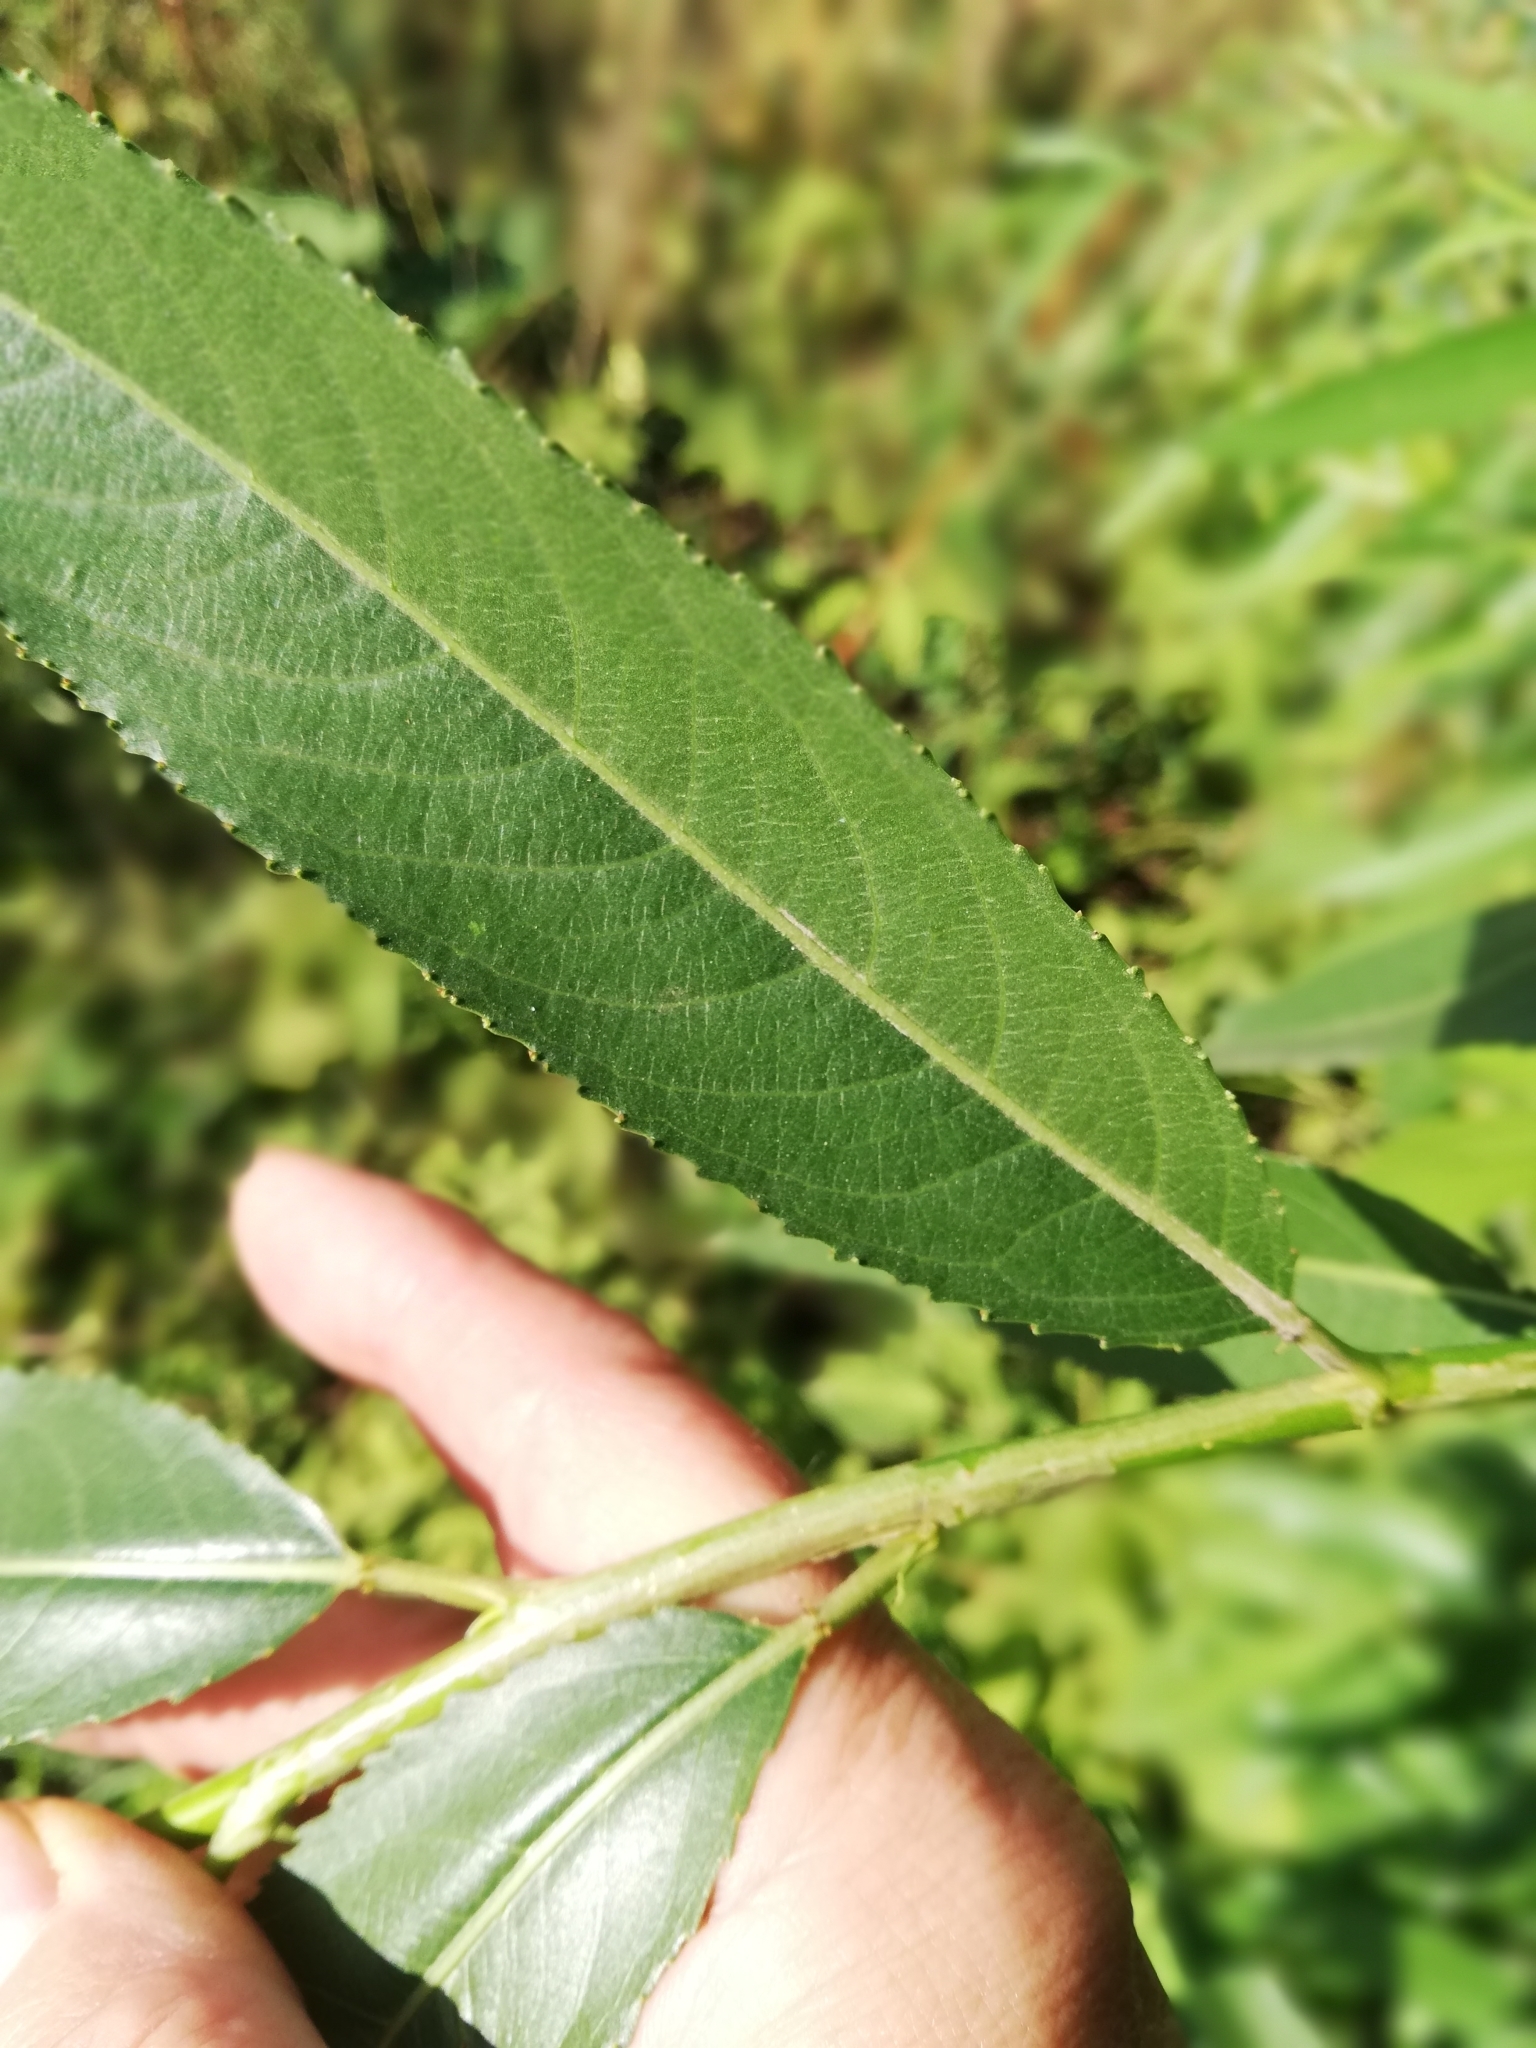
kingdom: Plantae
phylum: Tracheophyta
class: Magnoliopsida
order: Malpighiales
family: Salicaceae
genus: Salix
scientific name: Salix triandra
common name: Almond willow
